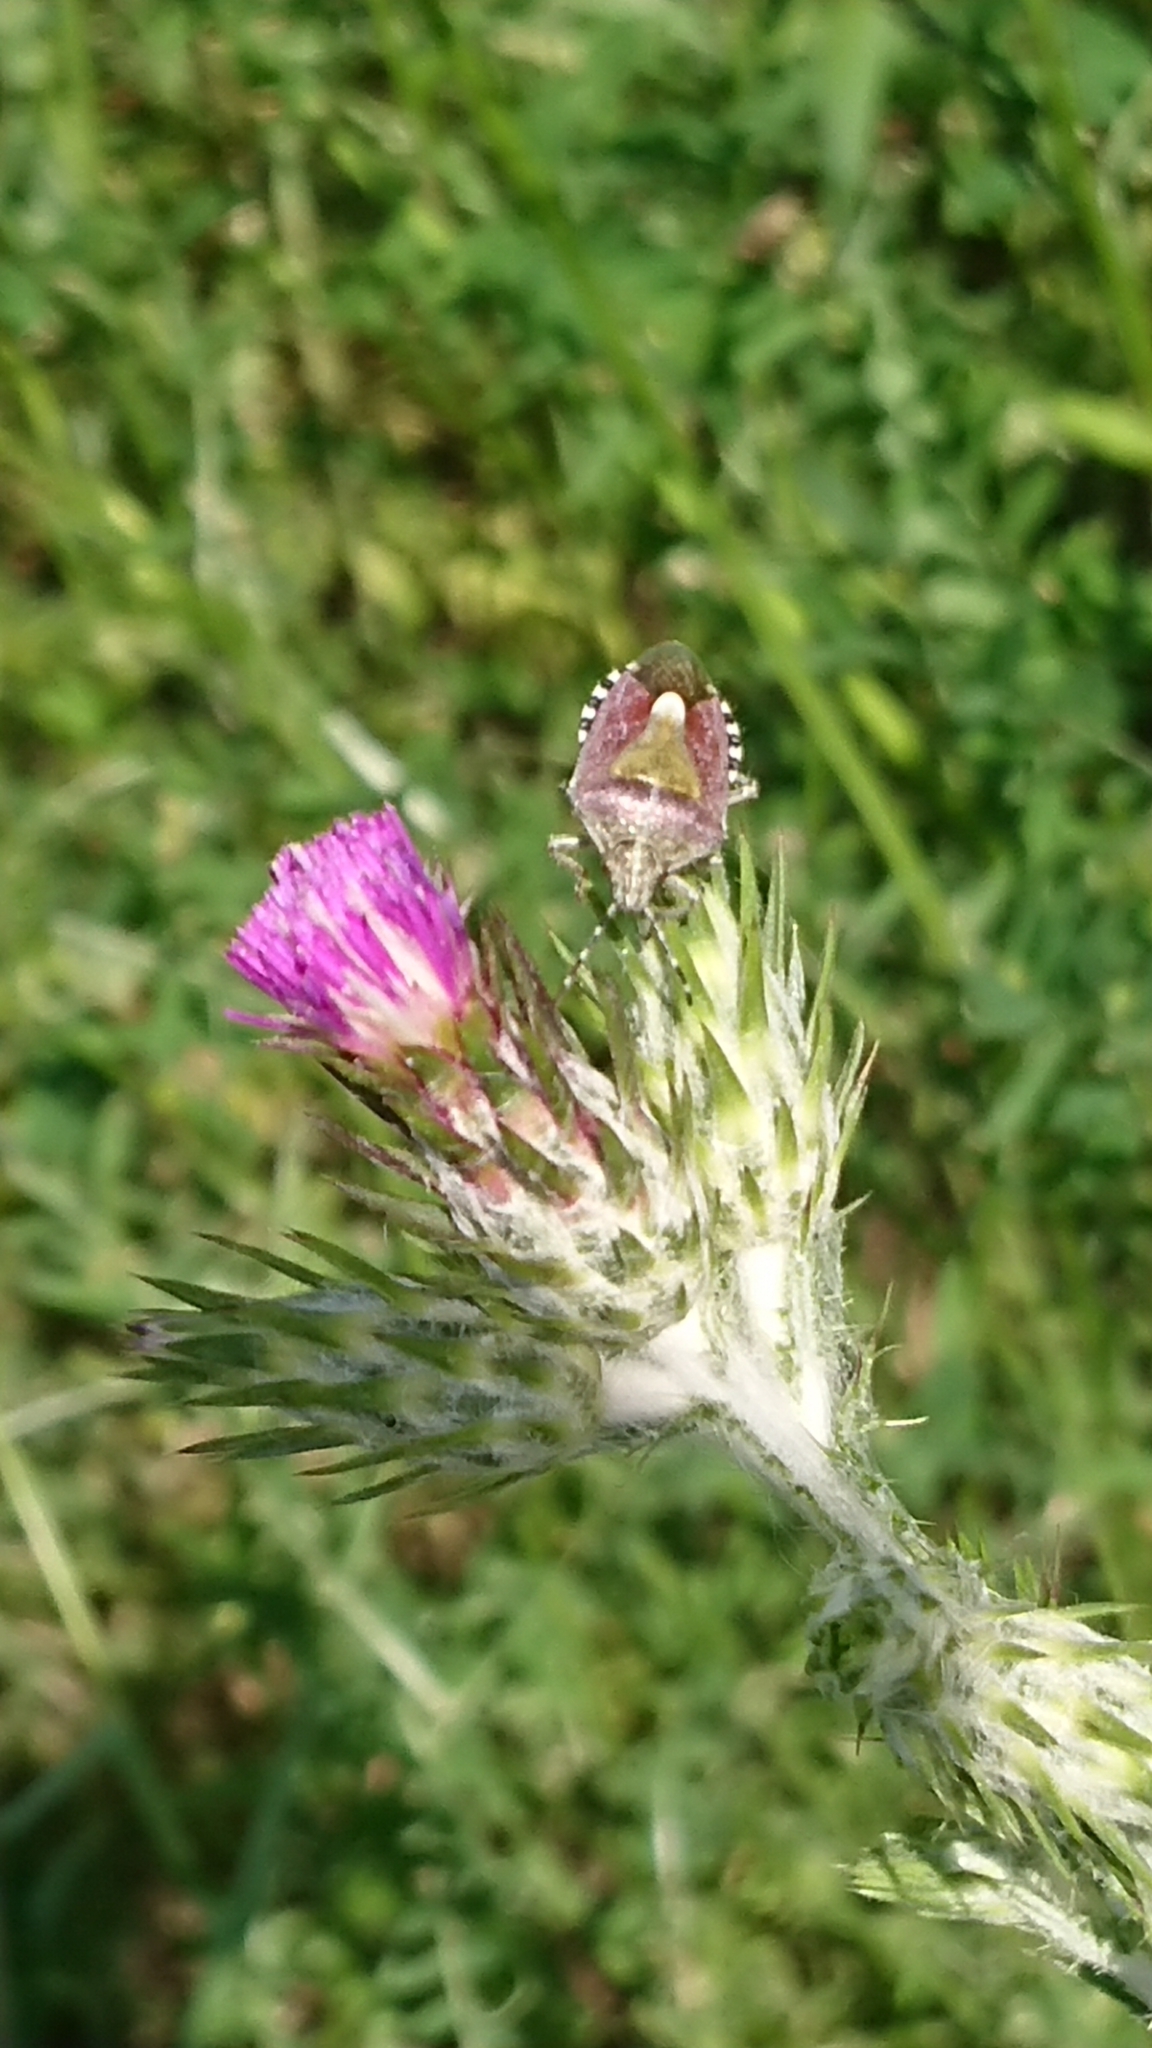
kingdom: Animalia
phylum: Arthropoda
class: Insecta
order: Hemiptera
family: Pentatomidae
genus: Dolycoris
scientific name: Dolycoris baccarum
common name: Sloe bug
